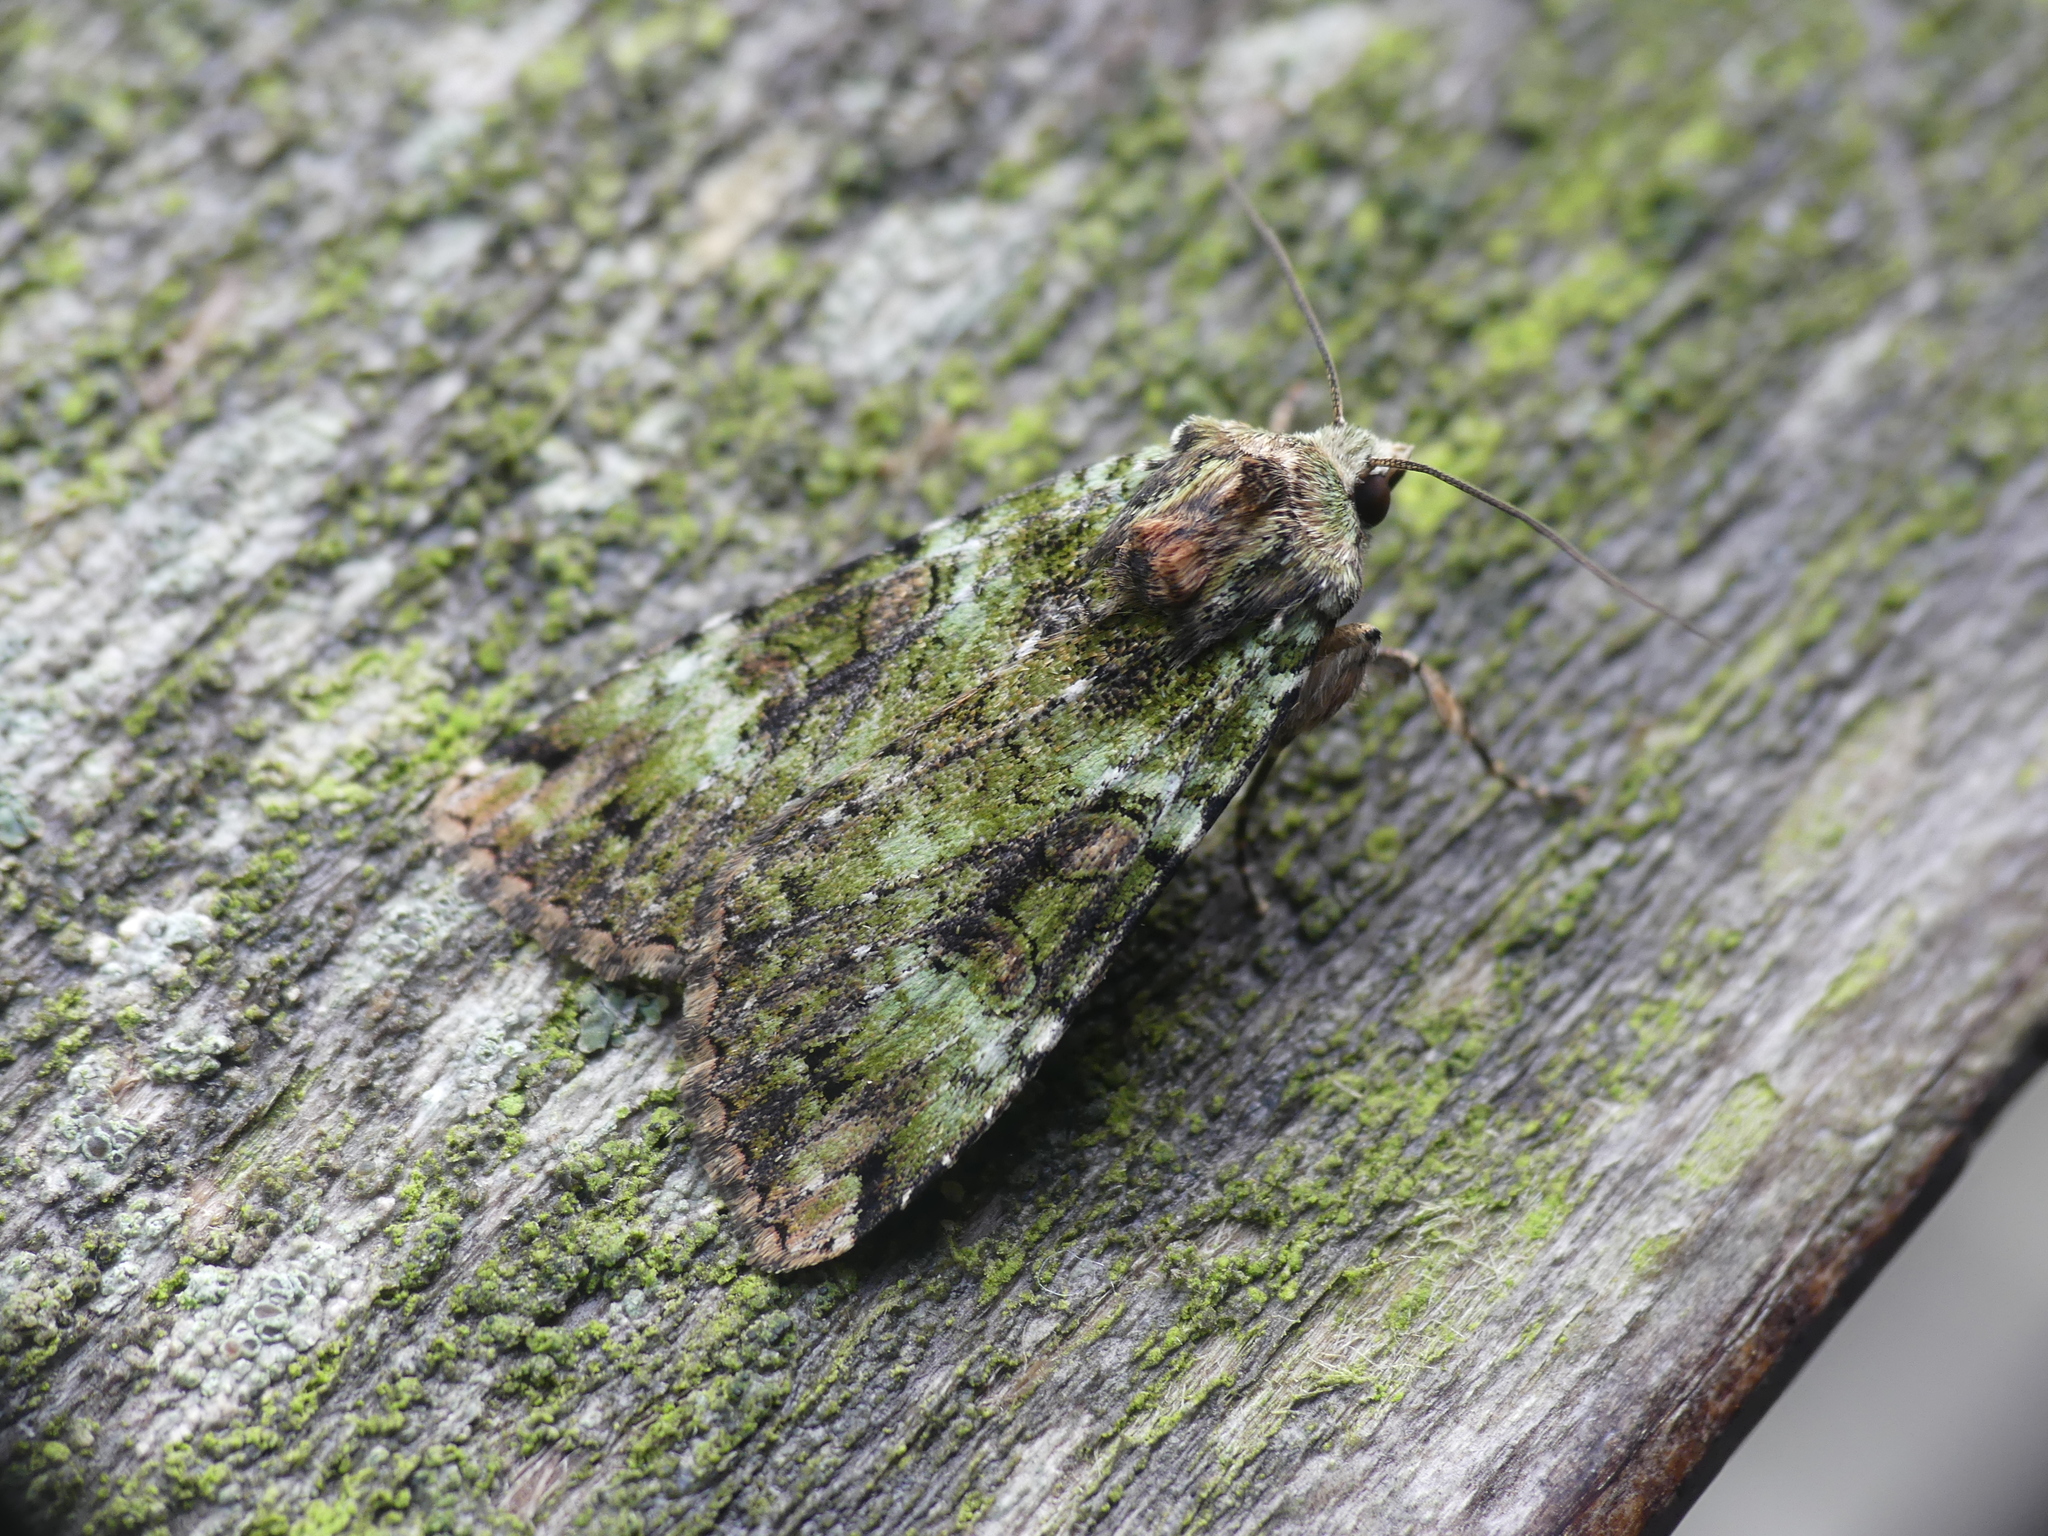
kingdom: Animalia
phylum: Arthropoda
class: Insecta
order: Lepidoptera
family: Noctuidae
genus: Anaplectoides
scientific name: Anaplectoides prasina
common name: Green arches
